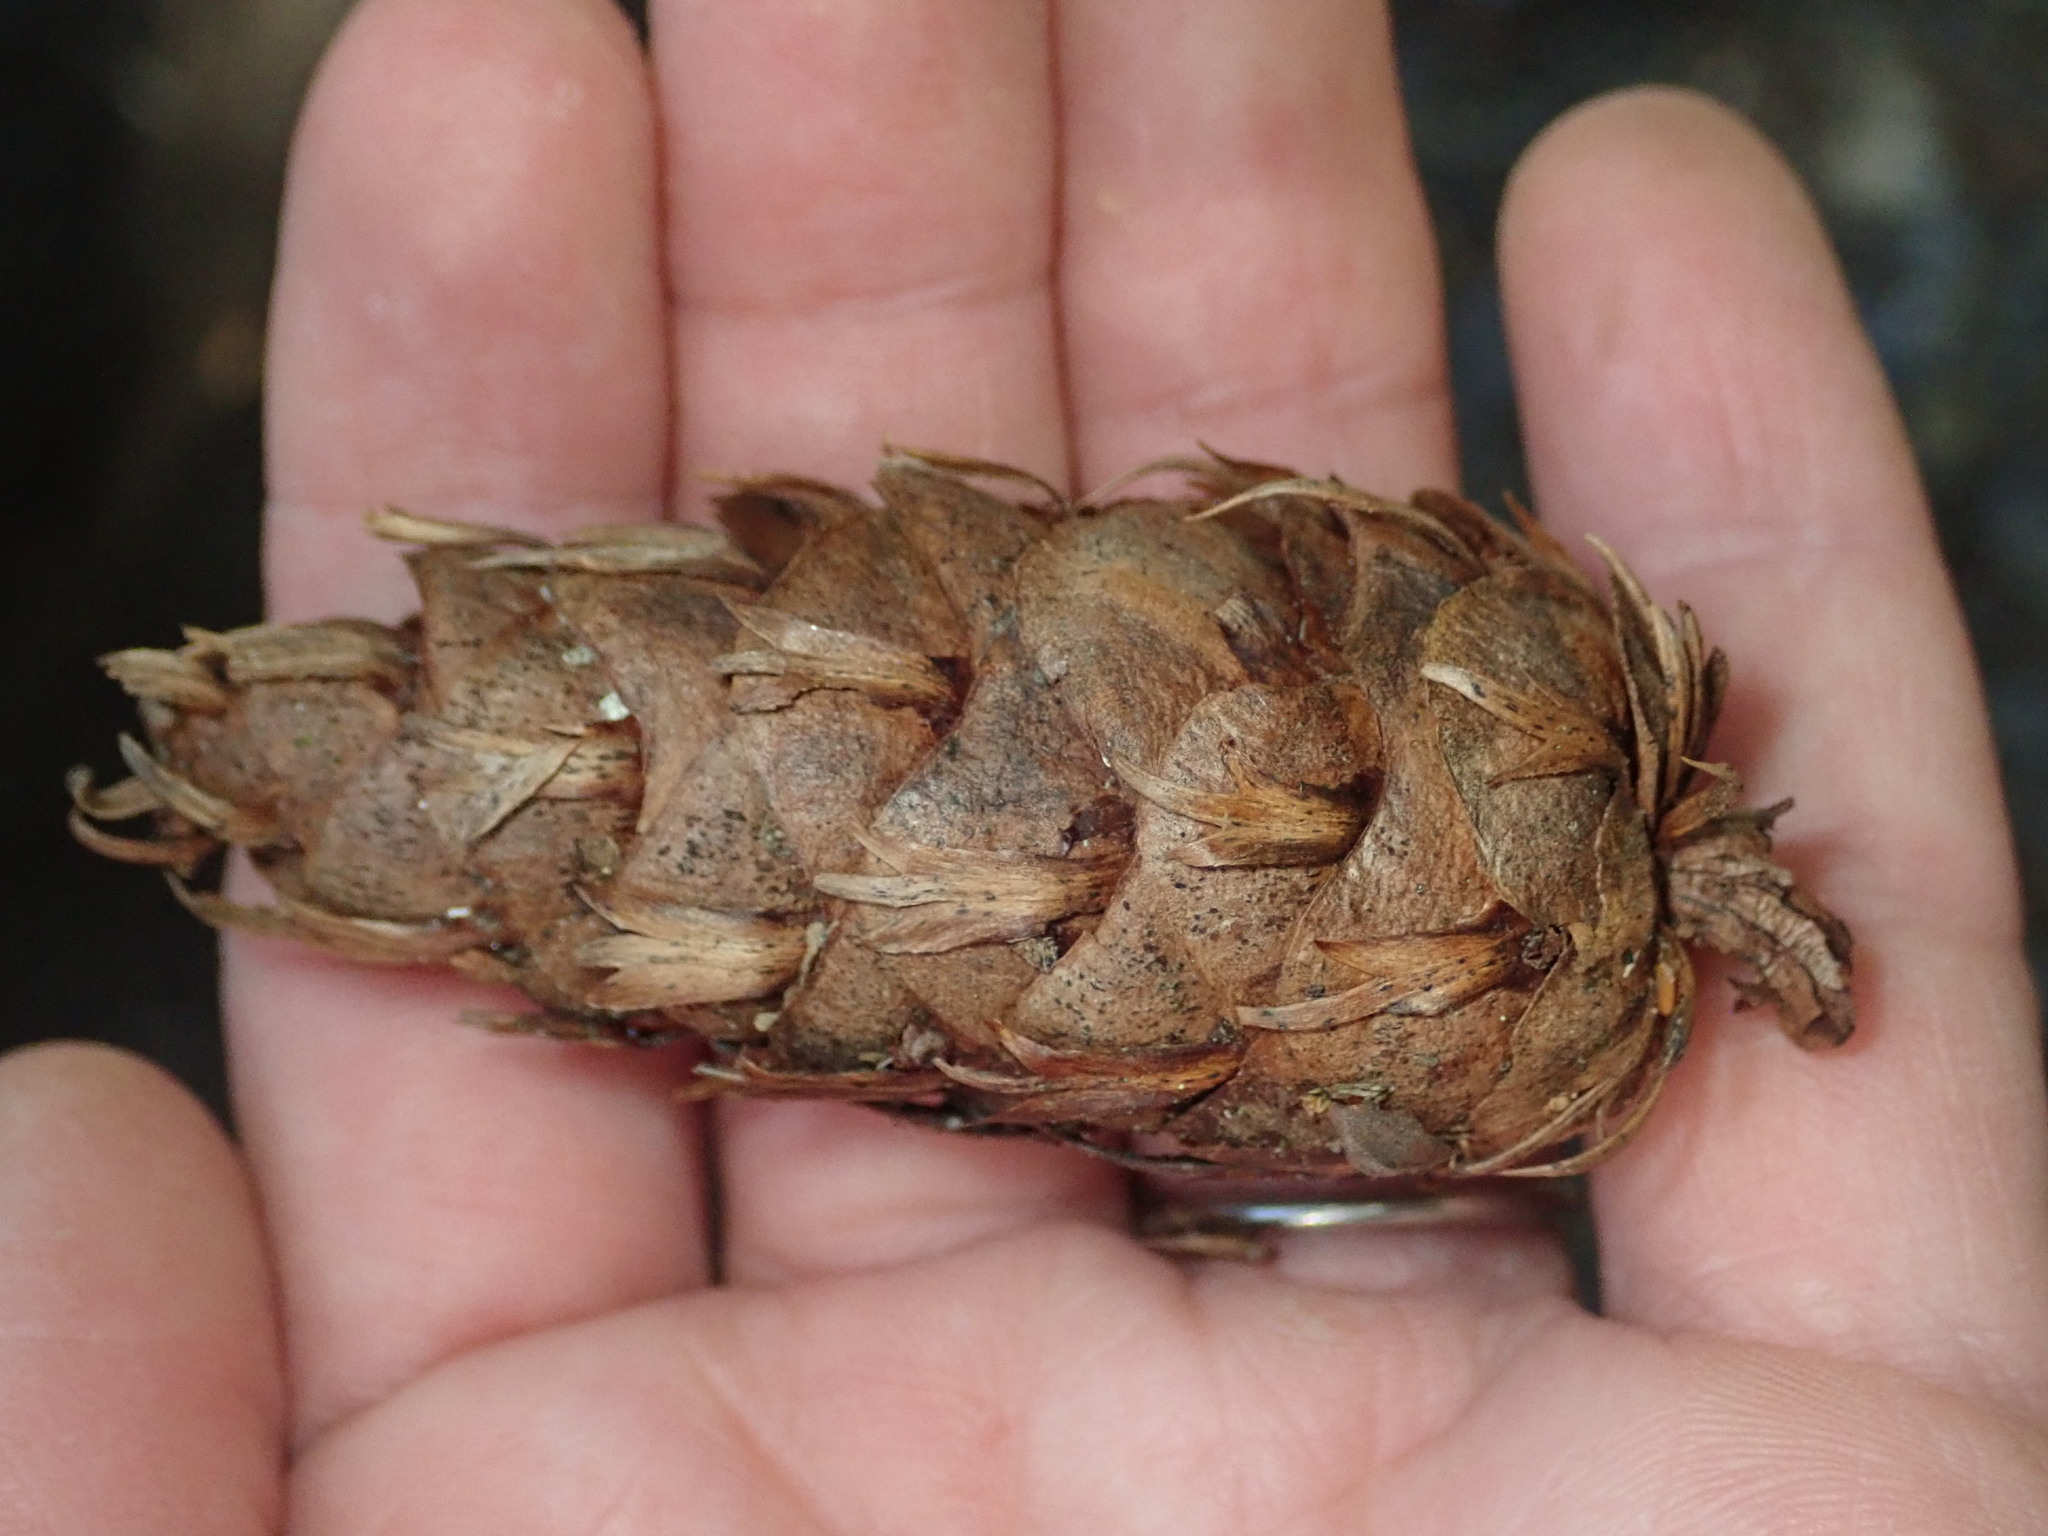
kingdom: Plantae
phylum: Tracheophyta
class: Pinopsida
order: Pinales
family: Pinaceae
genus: Pseudotsuga
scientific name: Pseudotsuga menziesii
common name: Douglas fir
